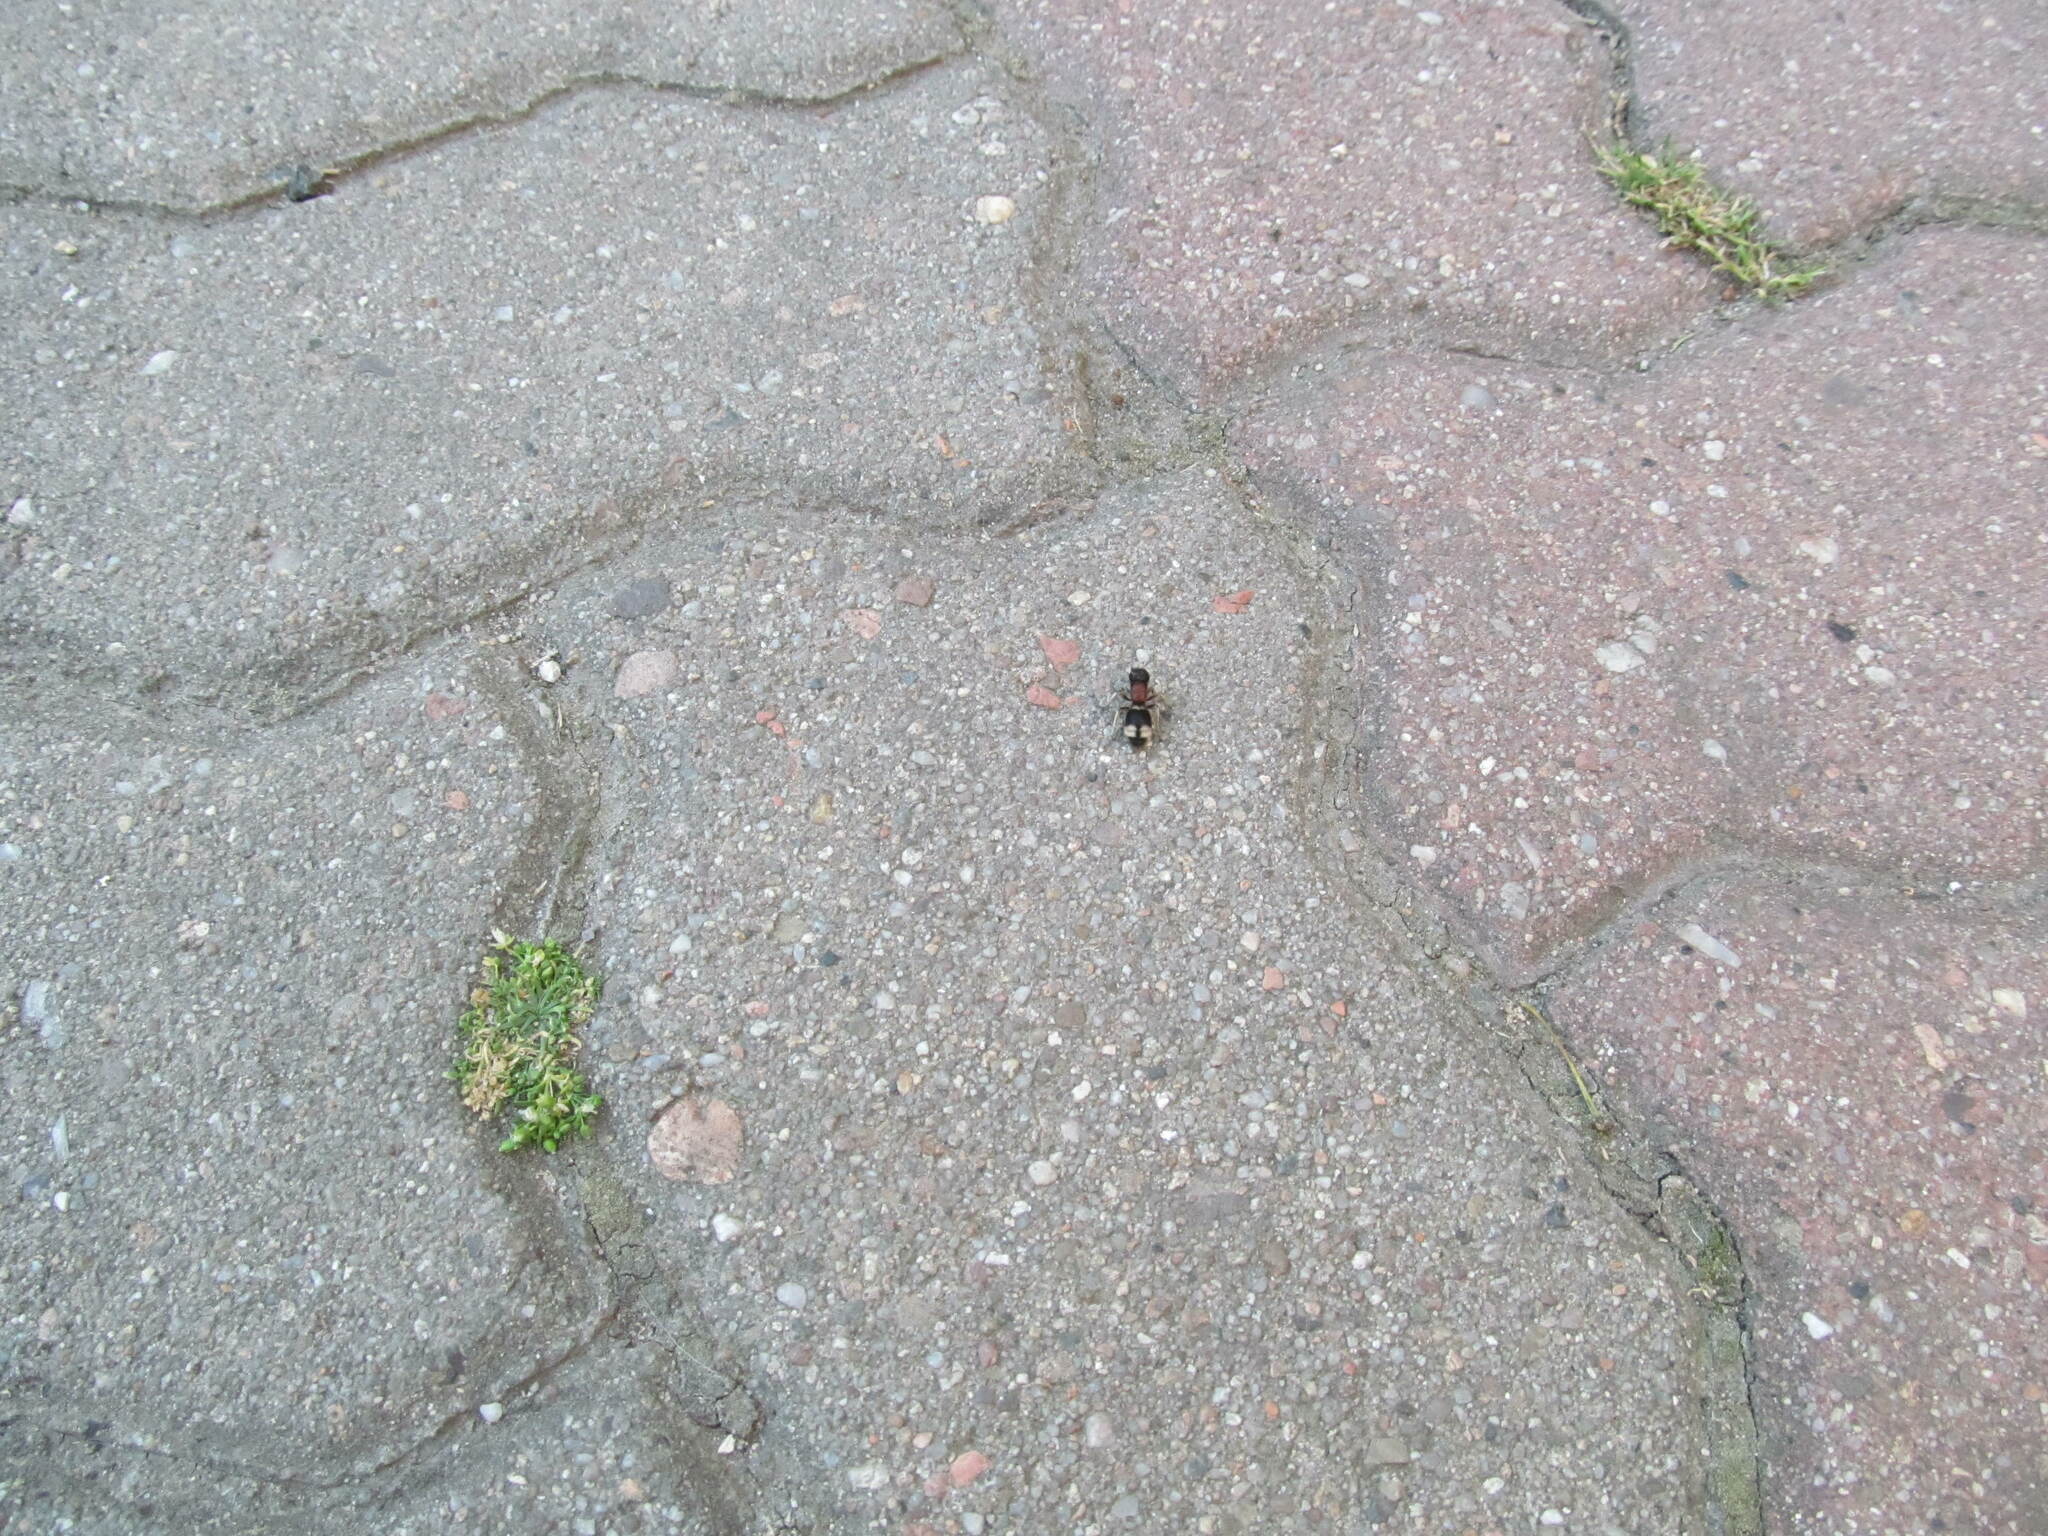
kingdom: Animalia
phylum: Arthropoda
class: Insecta
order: Hymenoptera
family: Mutillidae
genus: Mutilla
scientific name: Mutilla marginata
